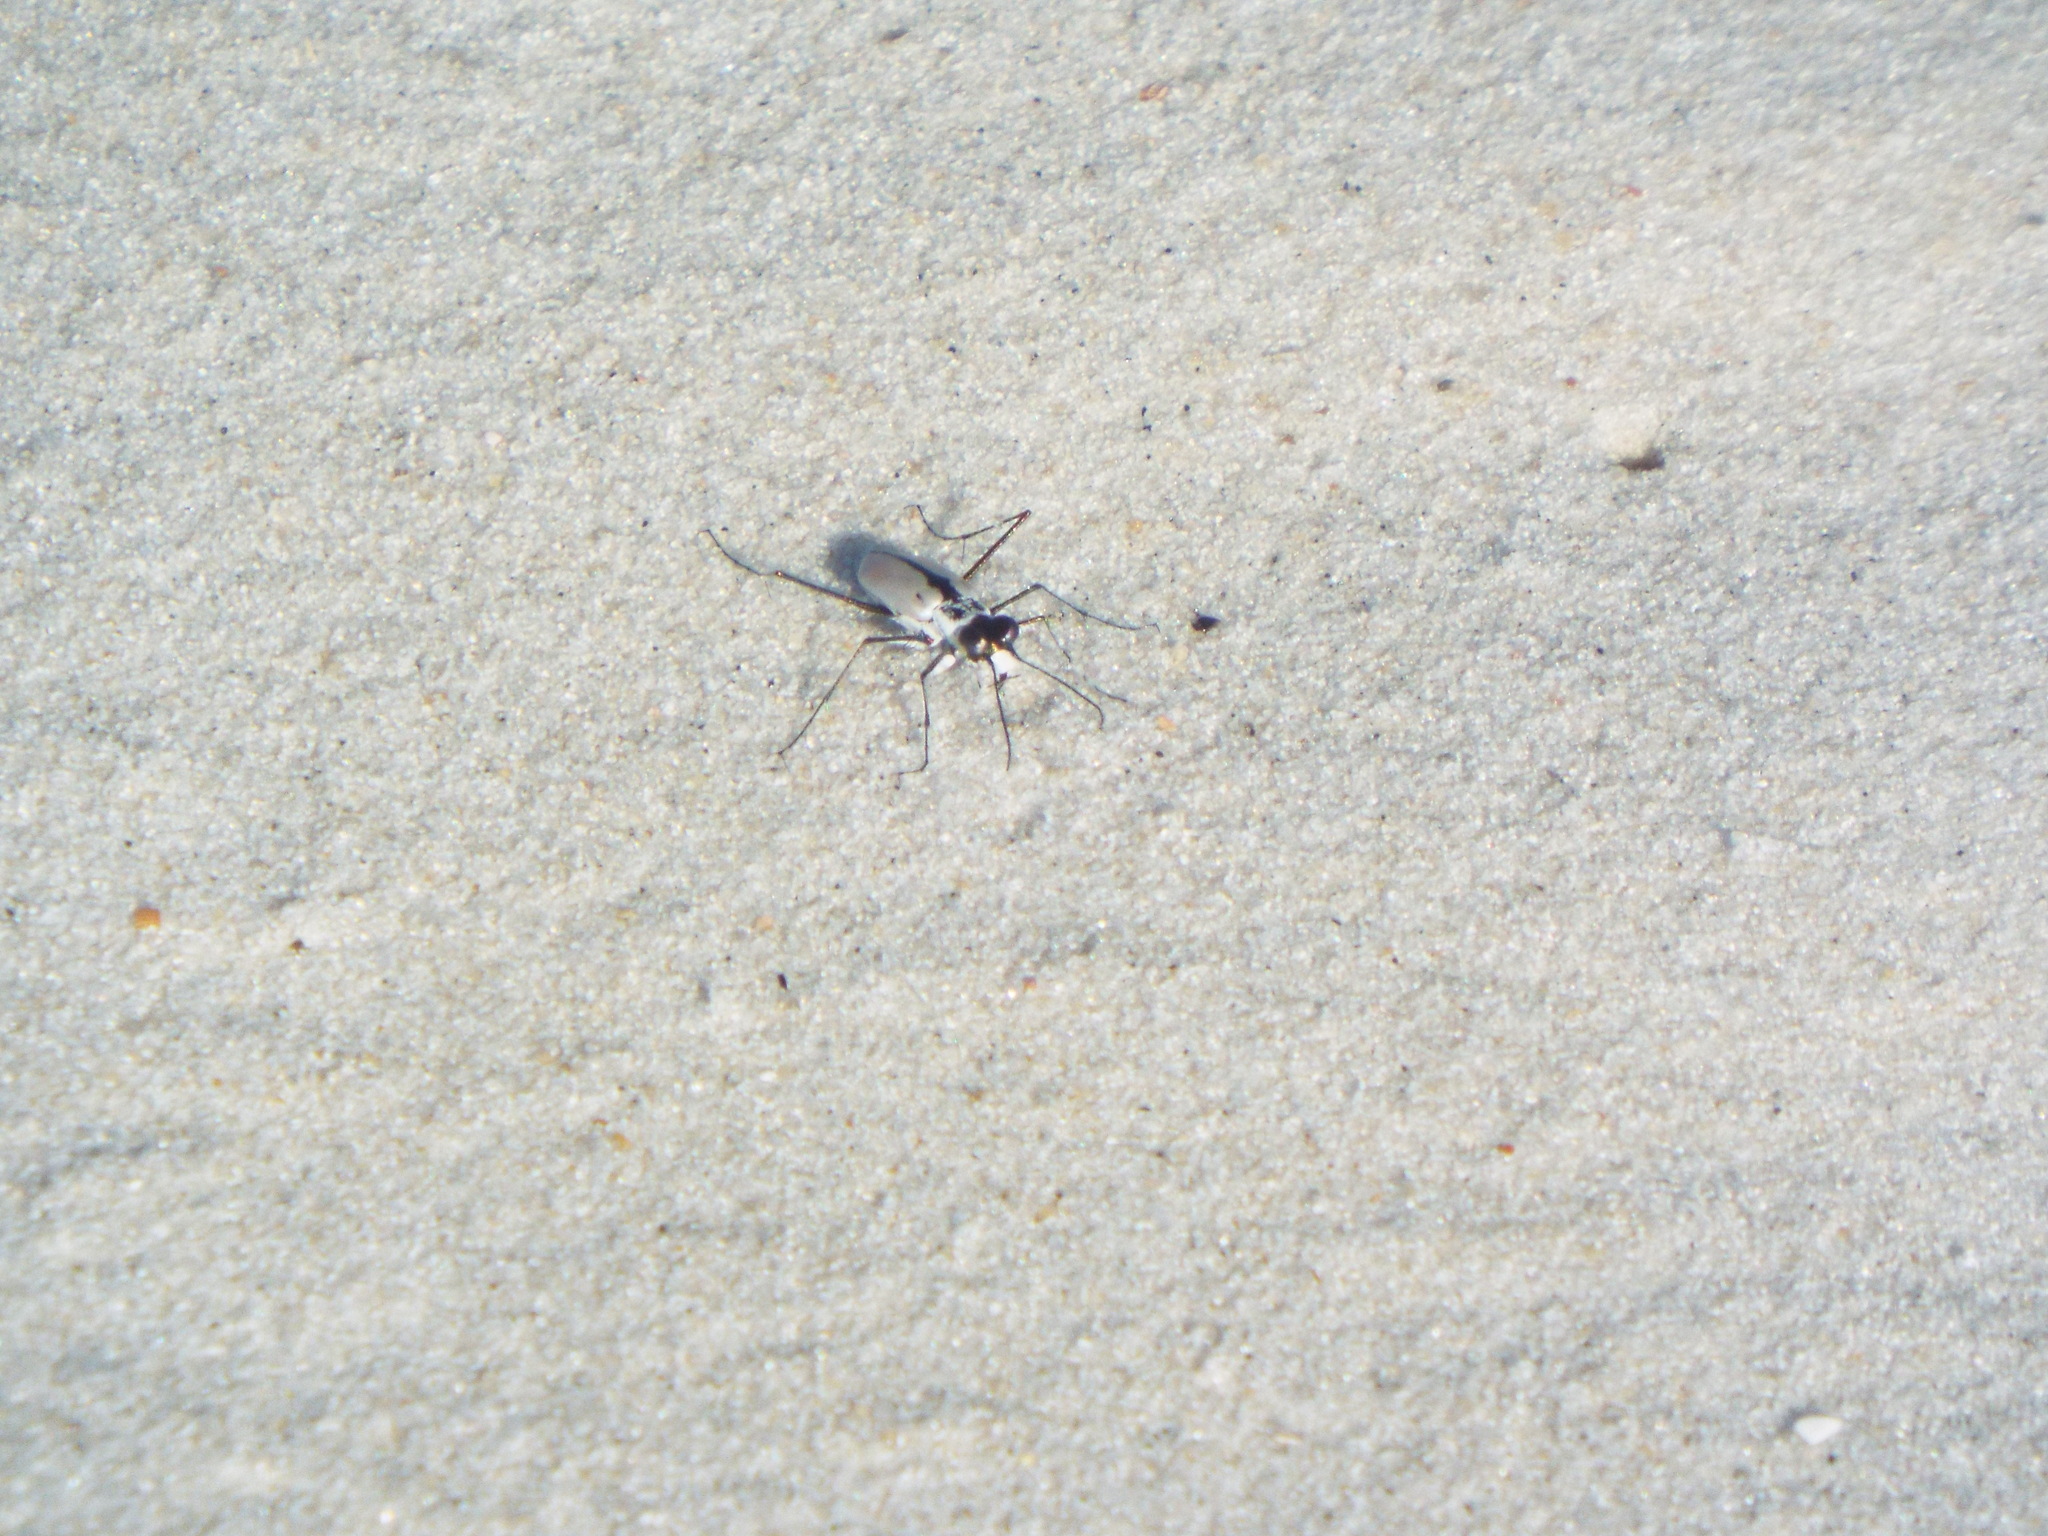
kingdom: Animalia
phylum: Arthropoda
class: Insecta
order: Coleoptera
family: Carabidae
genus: Habroscelimorpha
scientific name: Habroscelimorpha dorsalis
